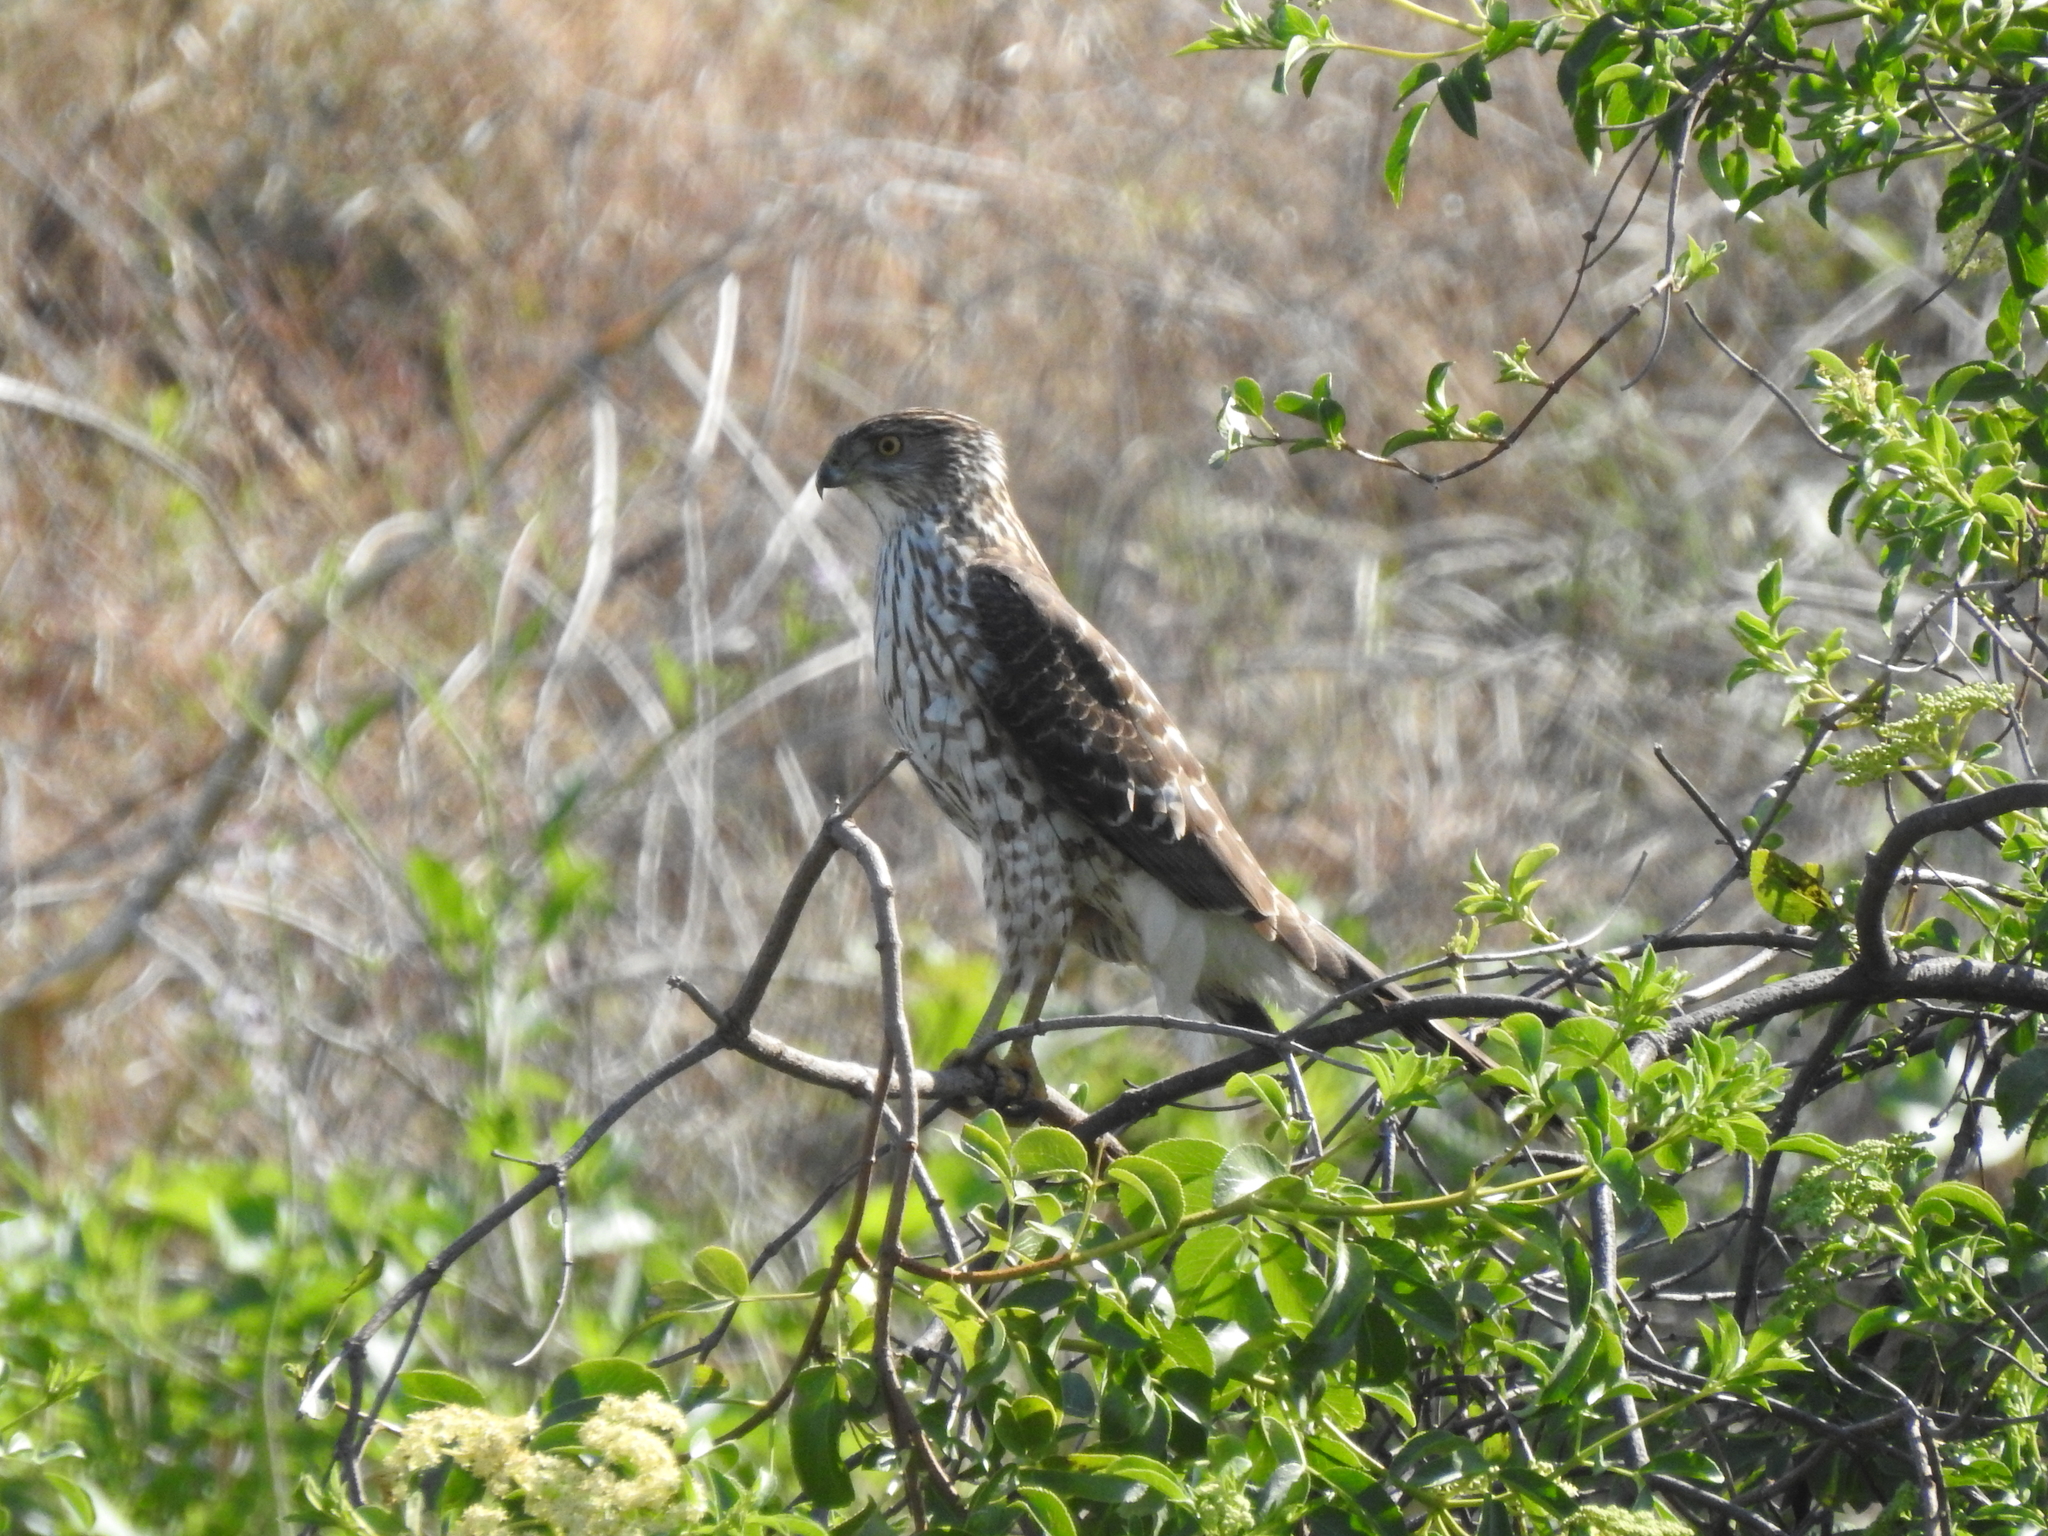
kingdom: Animalia
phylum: Chordata
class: Aves
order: Accipitriformes
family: Accipitridae
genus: Accipiter
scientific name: Accipiter cooperii
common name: Cooper's hawk
